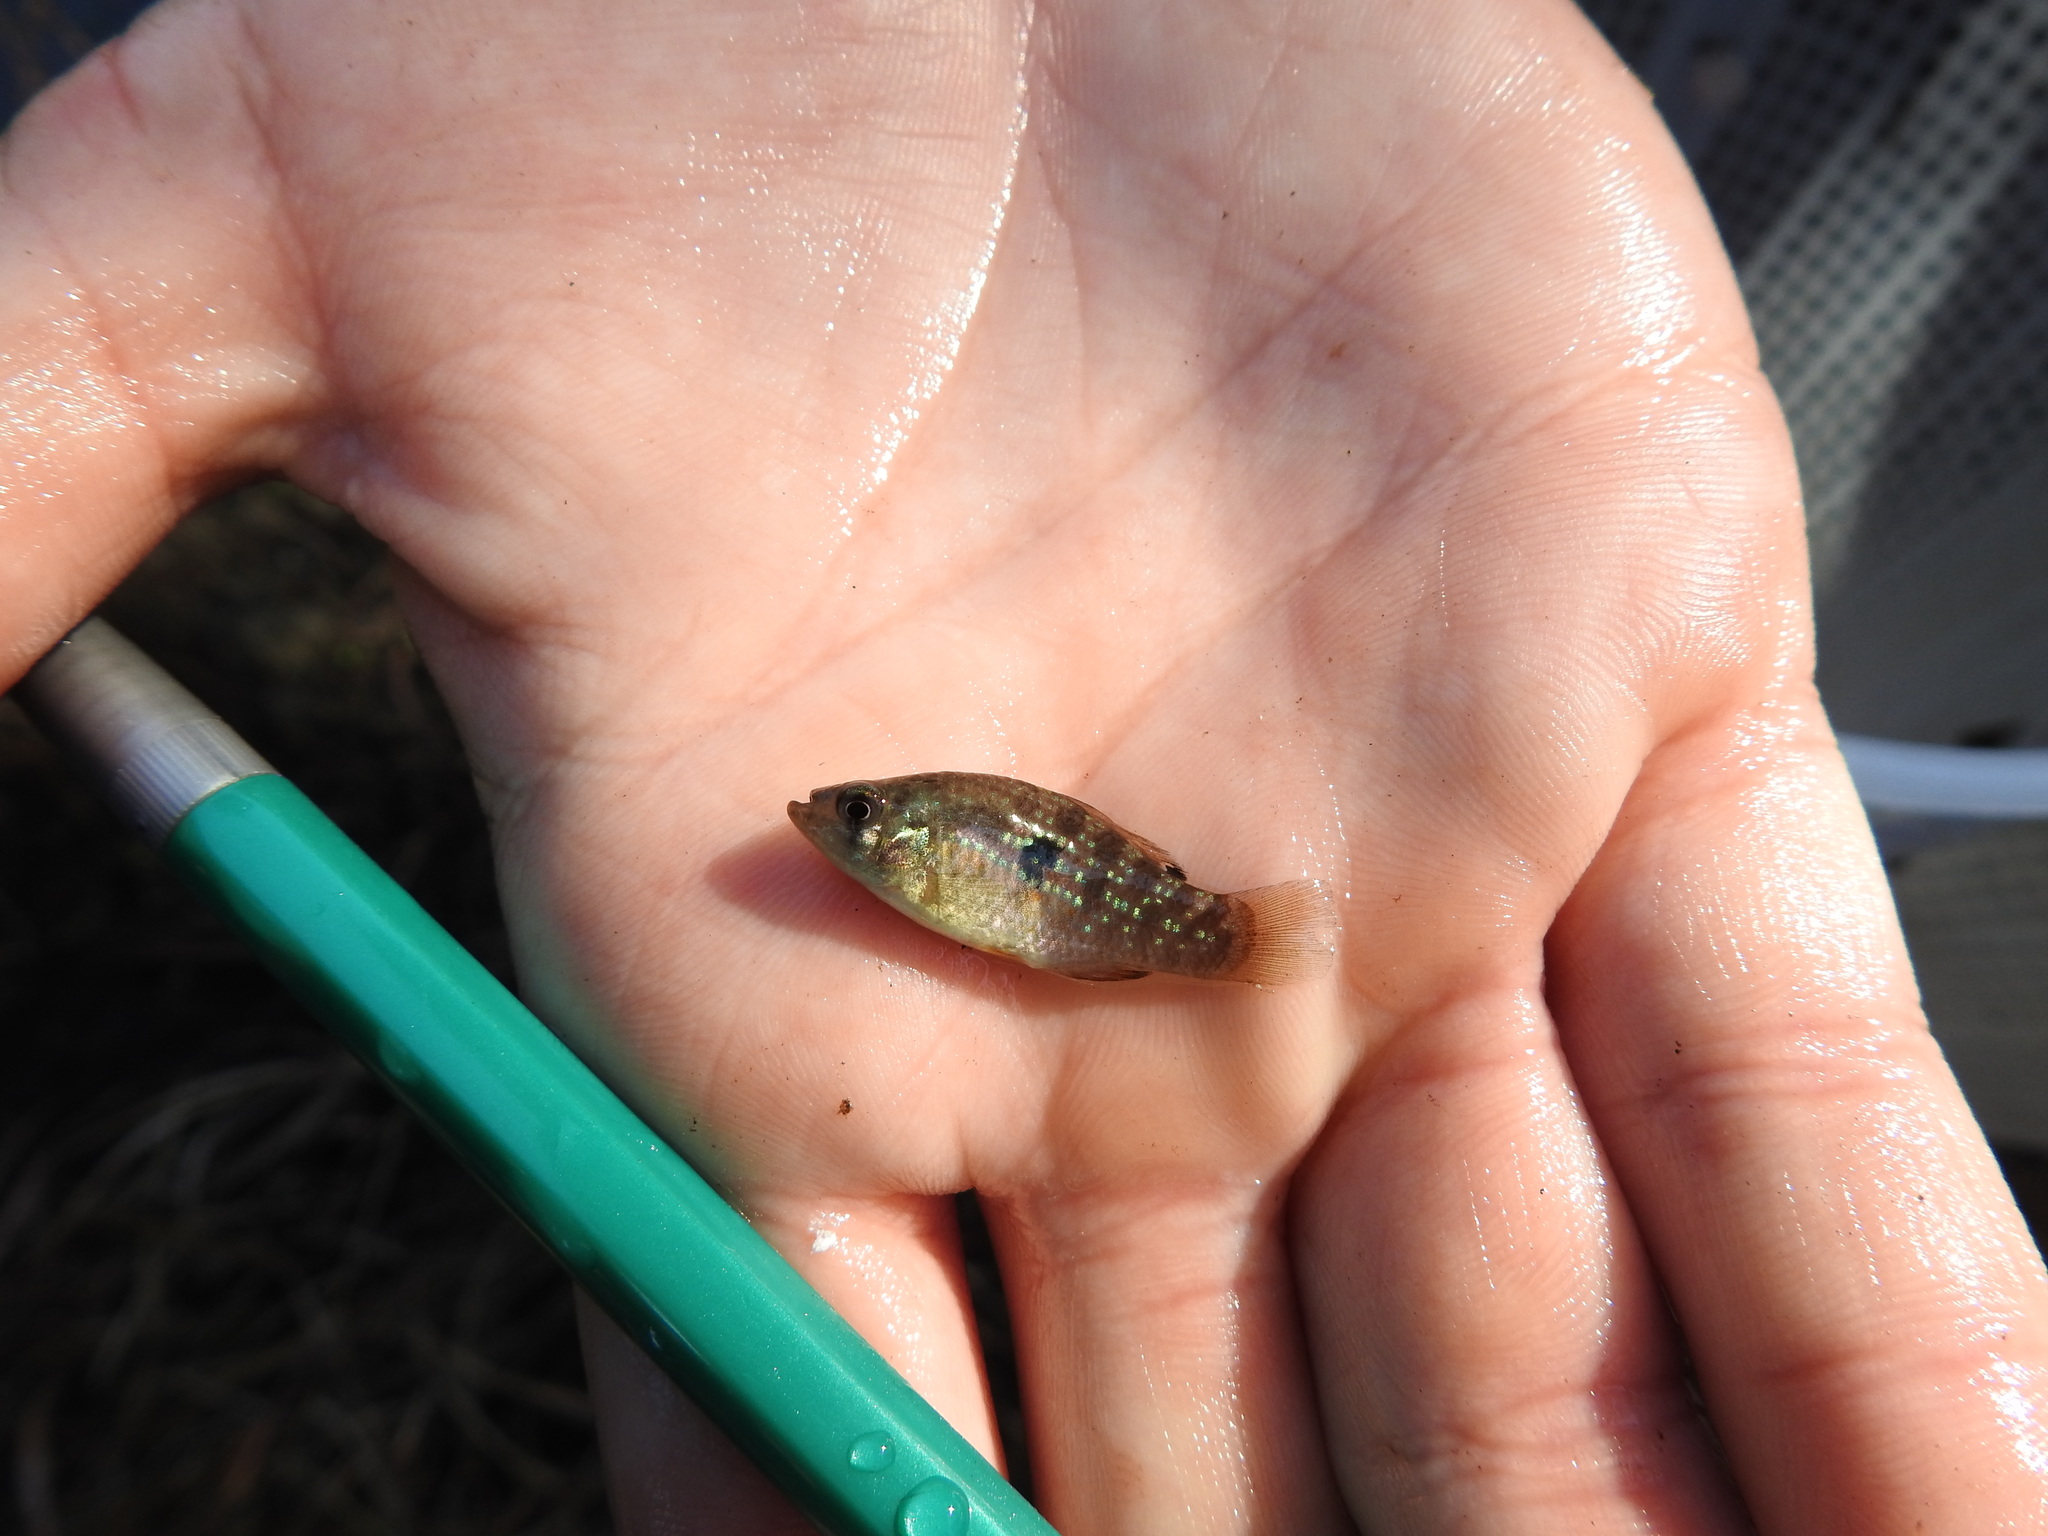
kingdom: Animalia
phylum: Chordata
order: Cyprinodontiformes
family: Cyprinodontidae
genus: Jordanella
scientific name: Jordanella floridae
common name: Flagfish
